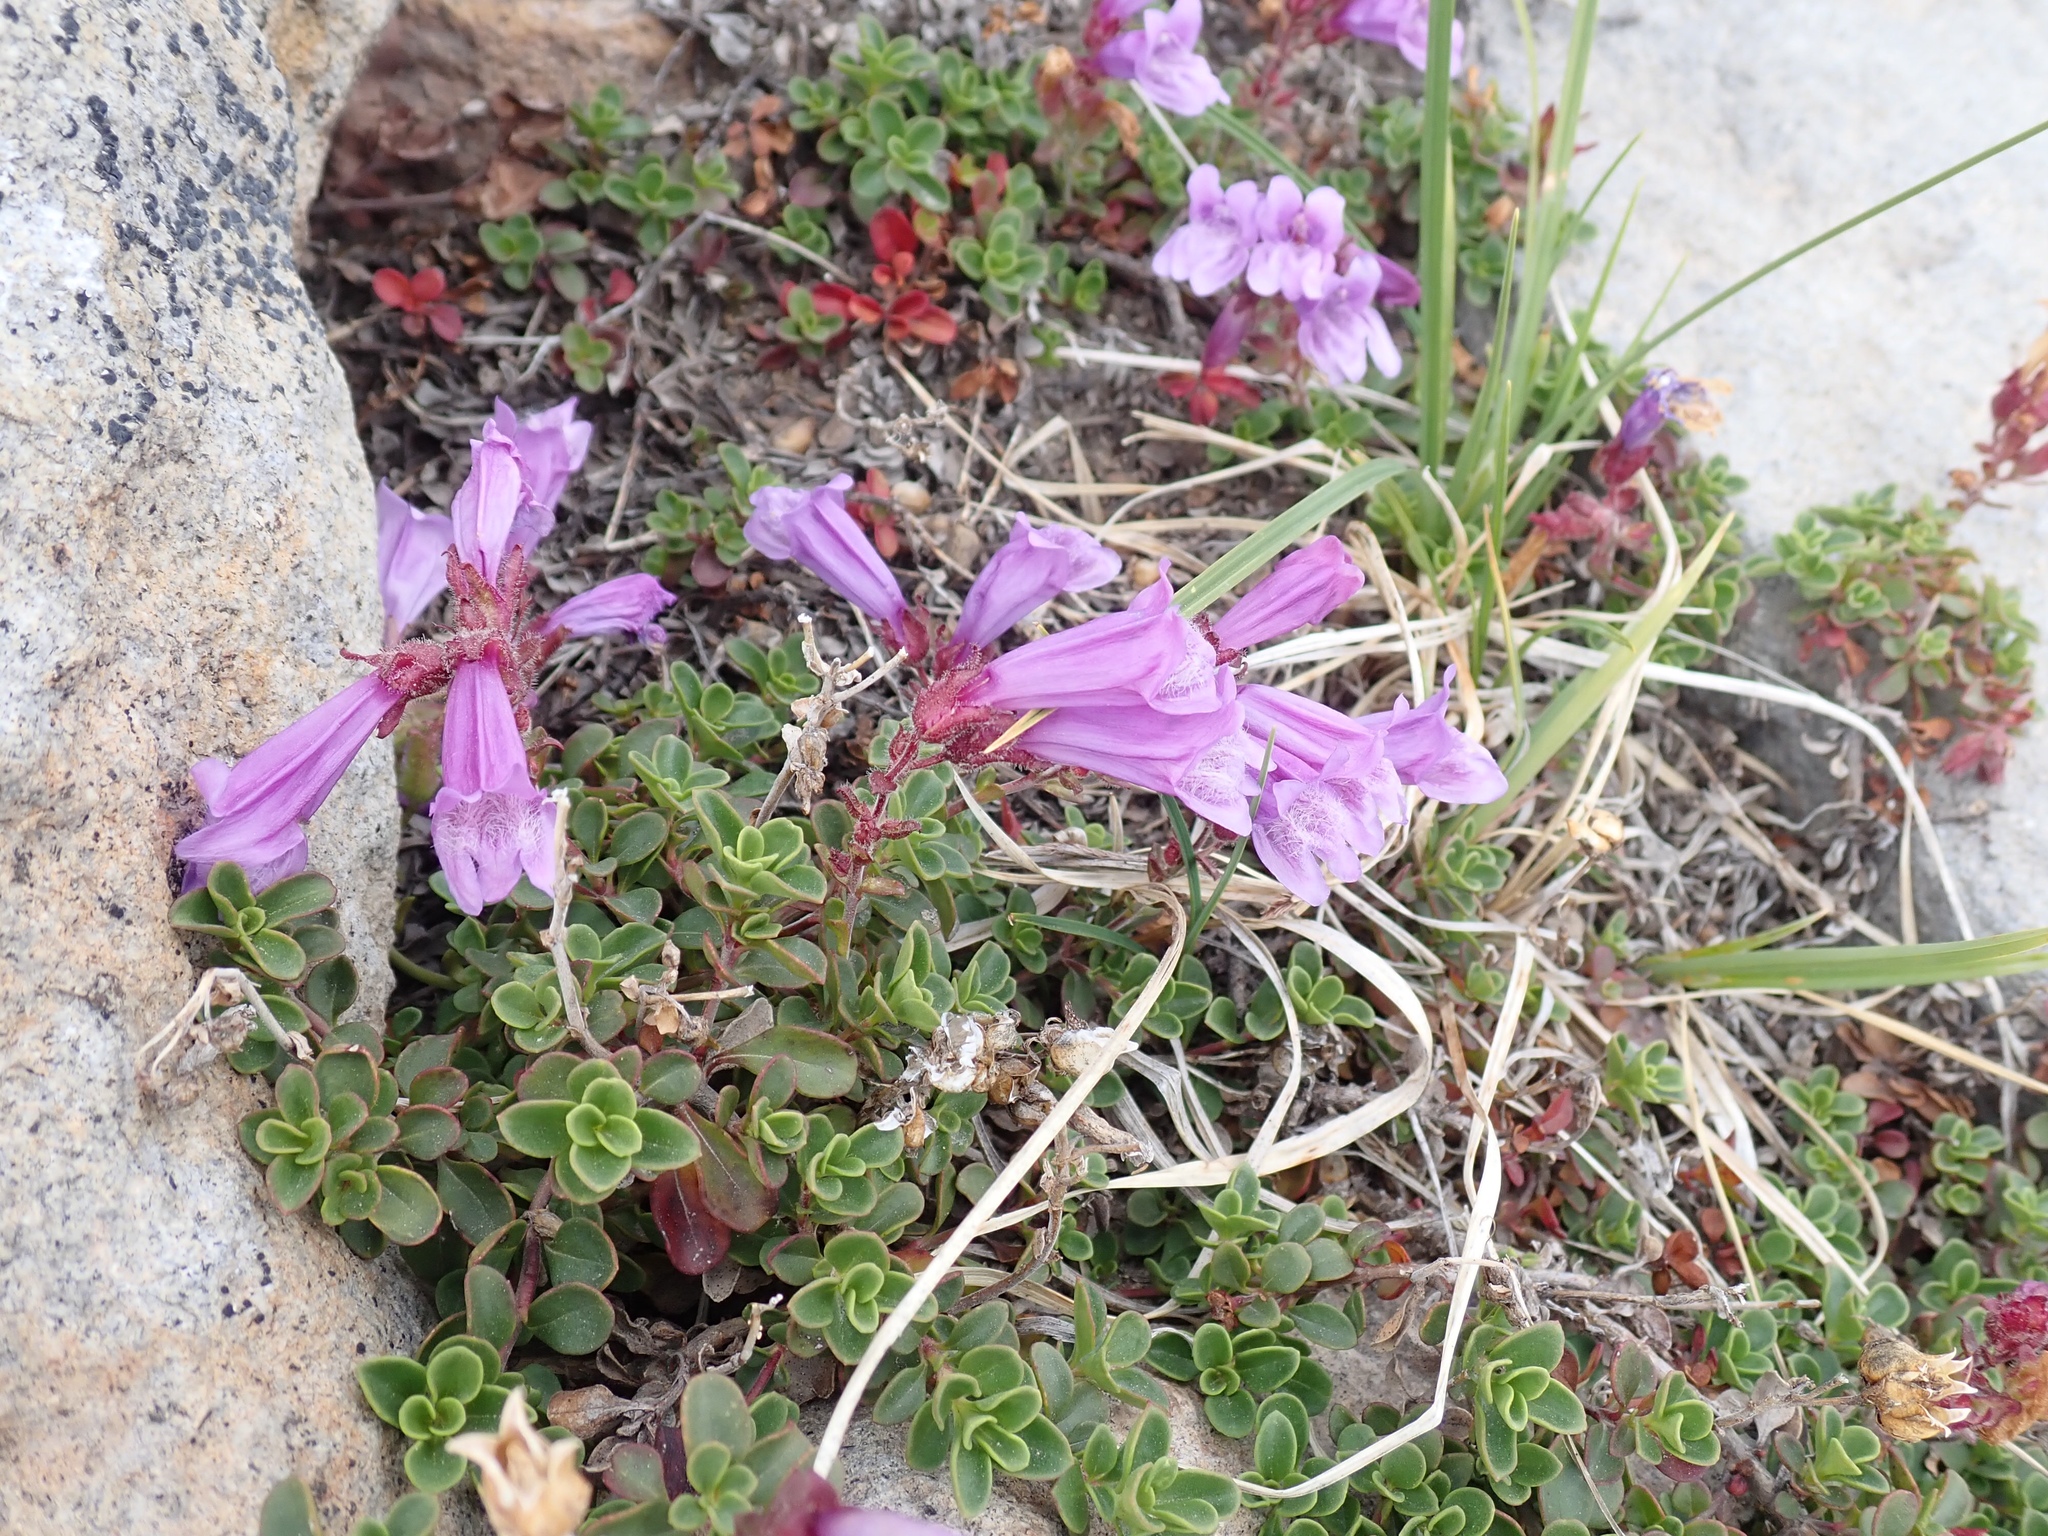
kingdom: Plantae
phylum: Tracheophyta
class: Magnoliopsida
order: Lamiales
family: Plantaginaceae
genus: Penstemon
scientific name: Penstemon davidsonii
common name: Davidson's penstemon
